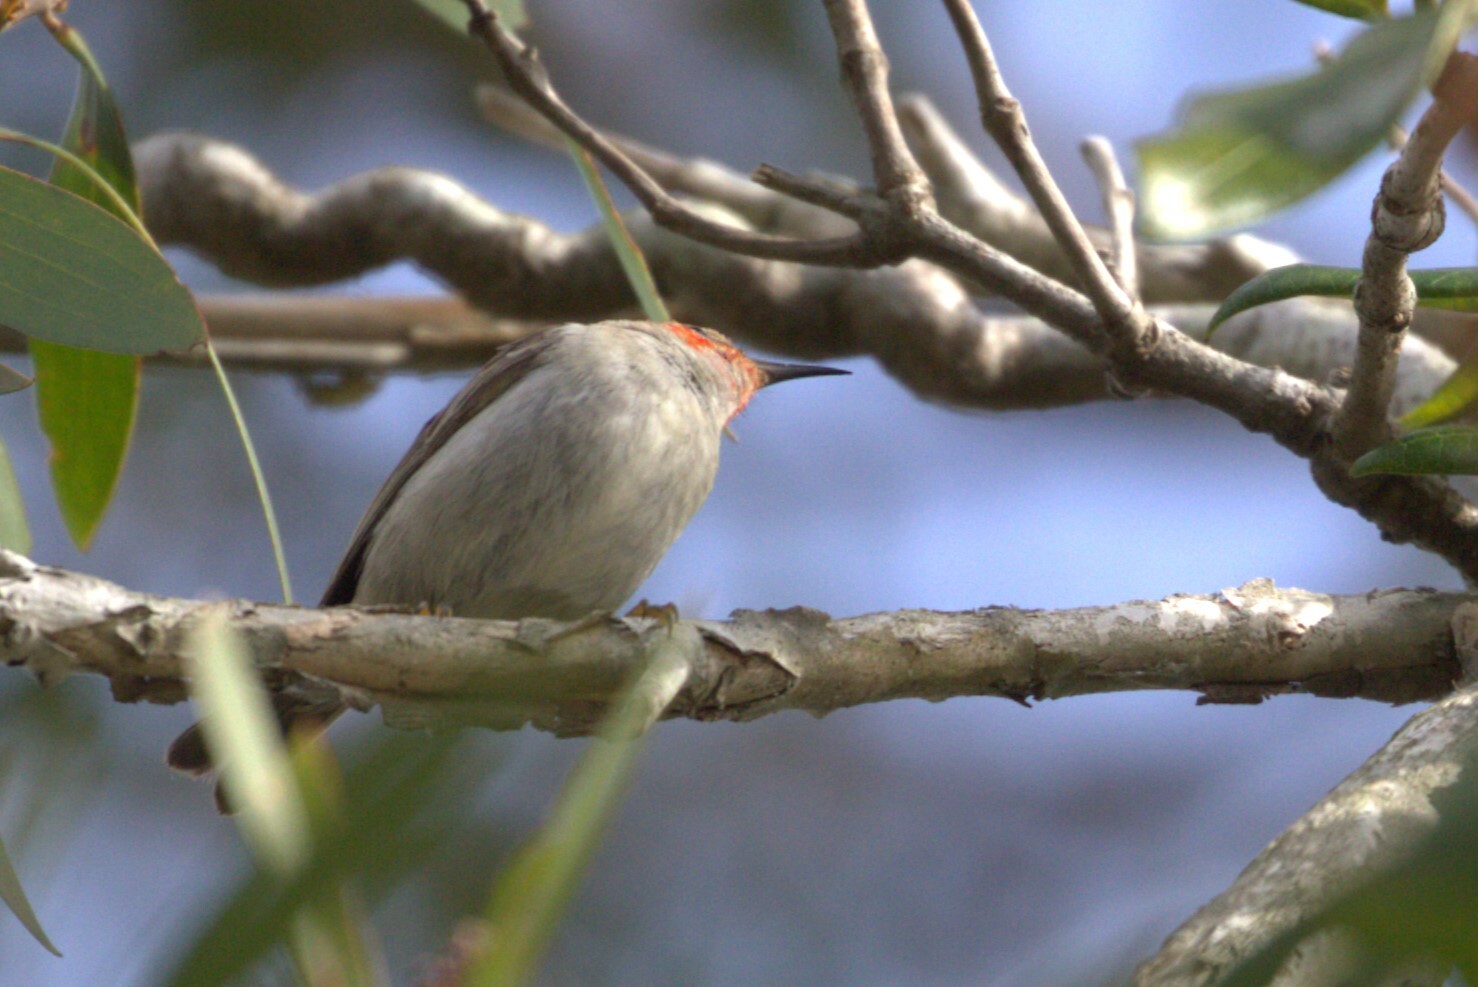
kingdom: Animalia
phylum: Chordata
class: Aves
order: Passeriformes
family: Meliphagidae
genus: Myzomela
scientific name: Myzomela sanguinolenta
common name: Scarlet myzomela
